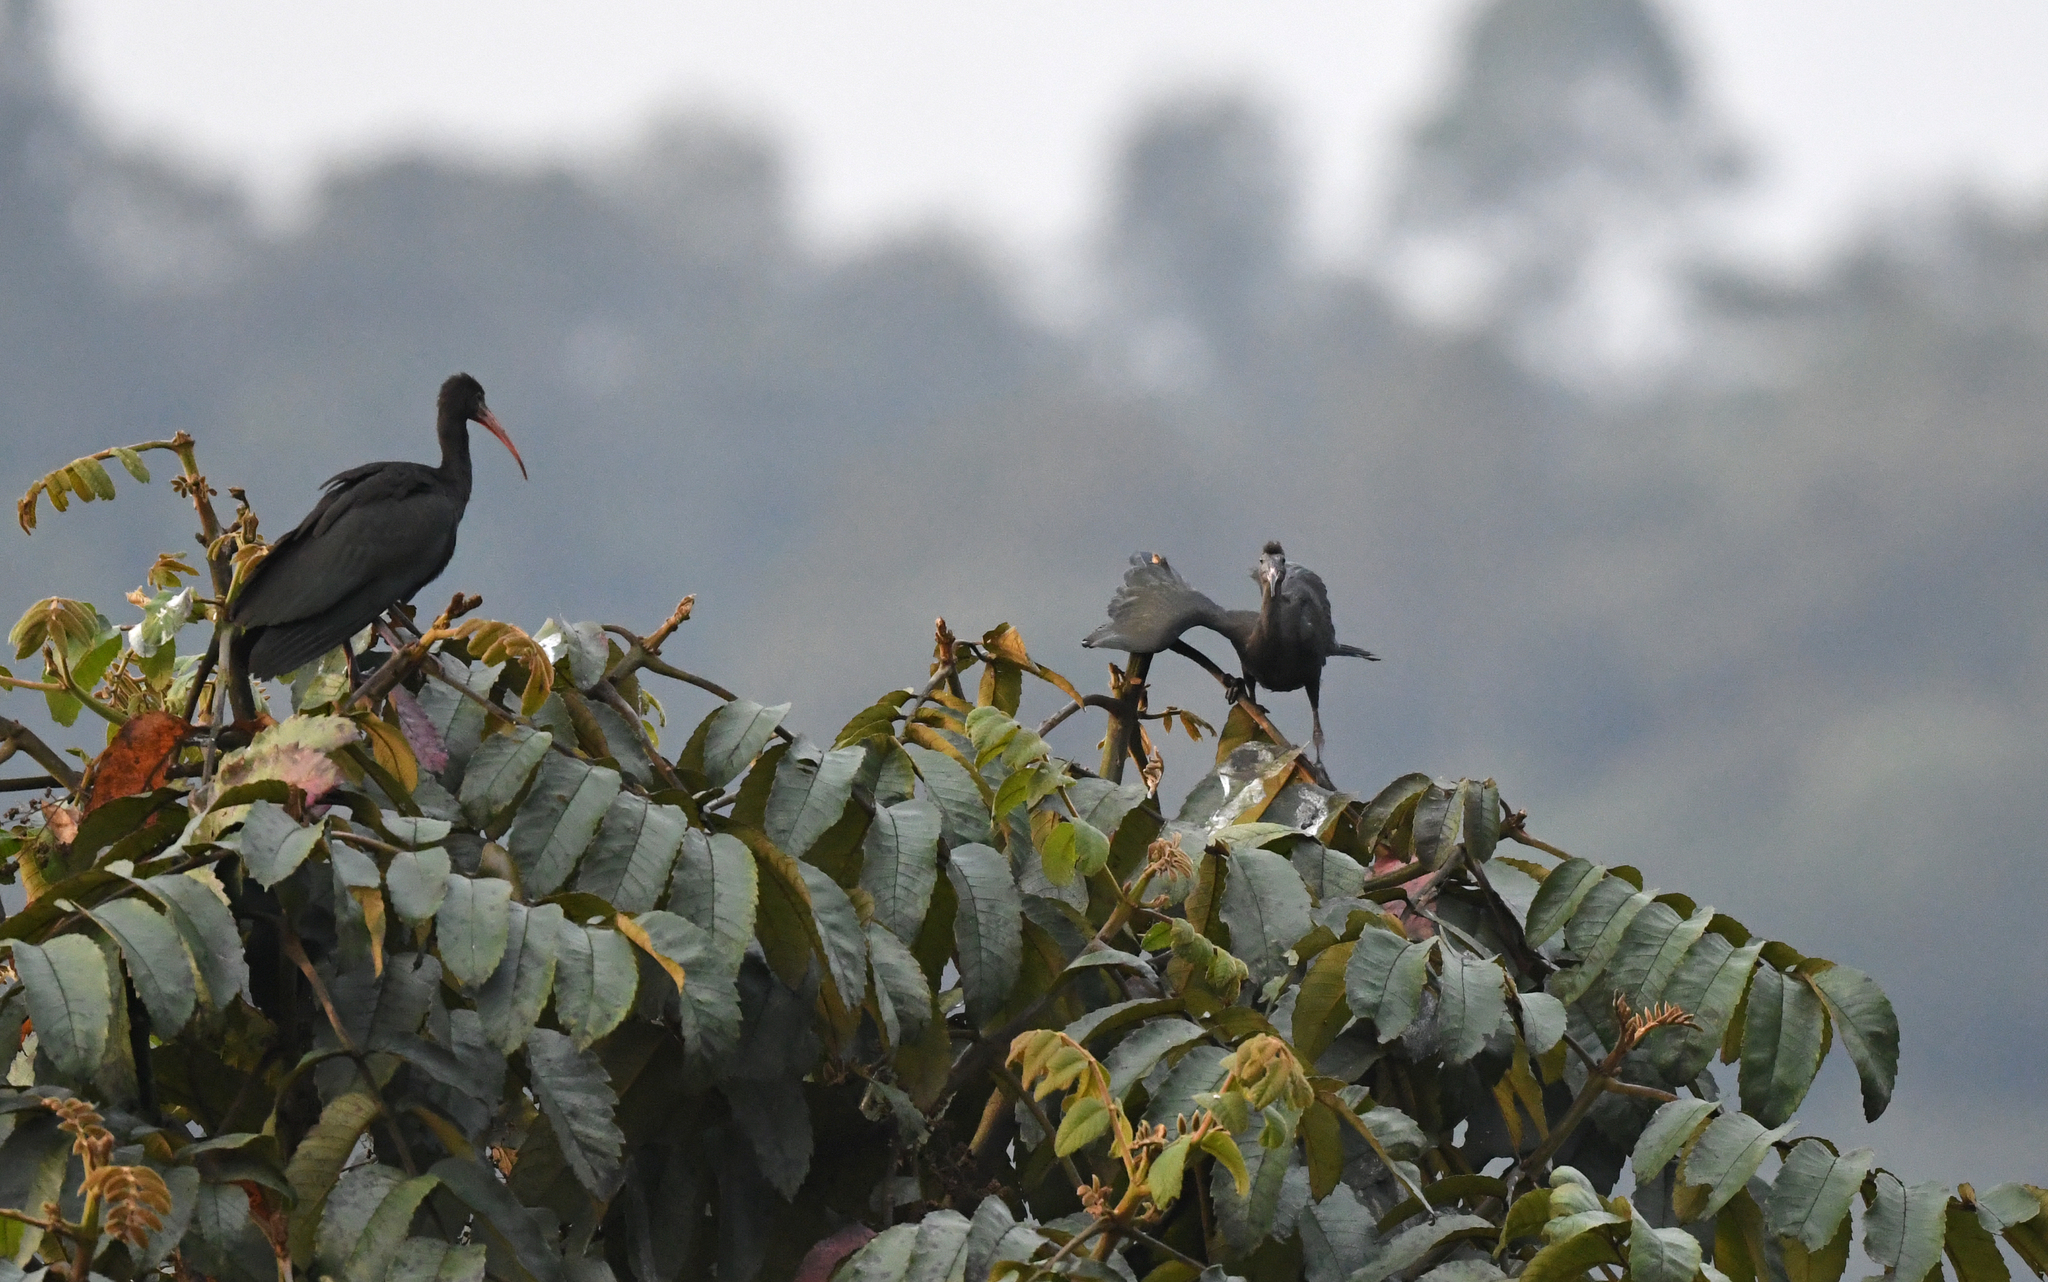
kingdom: Animalia
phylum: Chordata
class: Aves
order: Pelecaniformes
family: Threskiornithidae
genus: Phimosus
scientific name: Phimosus infuscatus
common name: Bare-faced ibis
